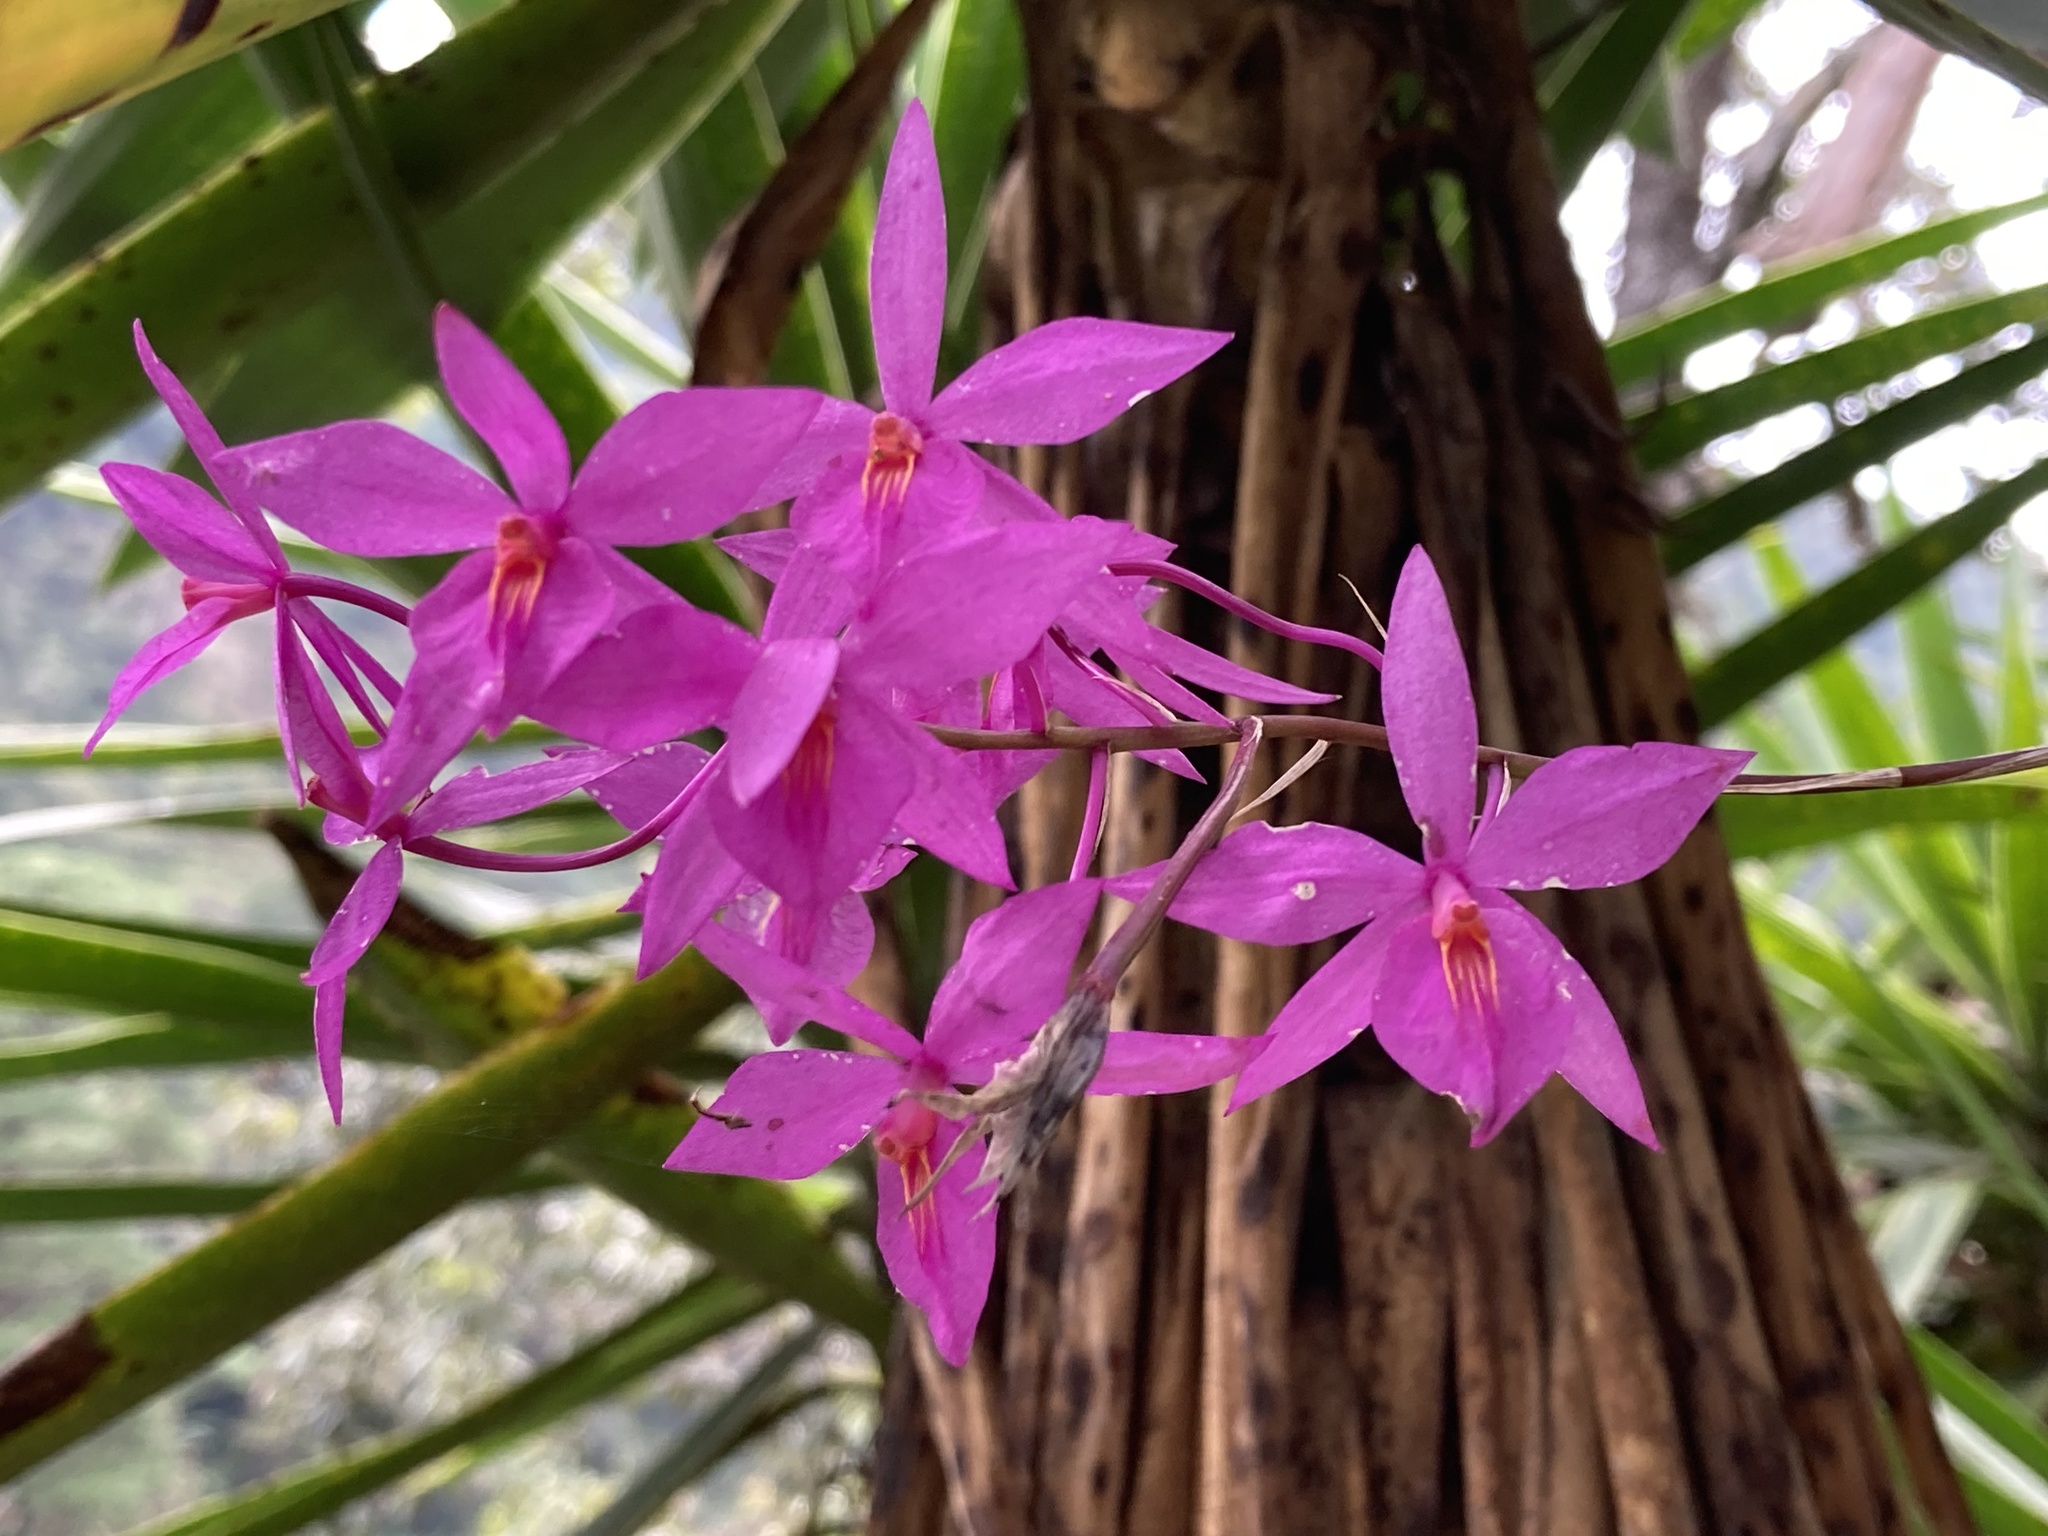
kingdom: Plantae
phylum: Tracheophyta
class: Liliopsida
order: Asparagales
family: Orchidaceae
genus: Barkeria
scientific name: Barkeria skinneri
